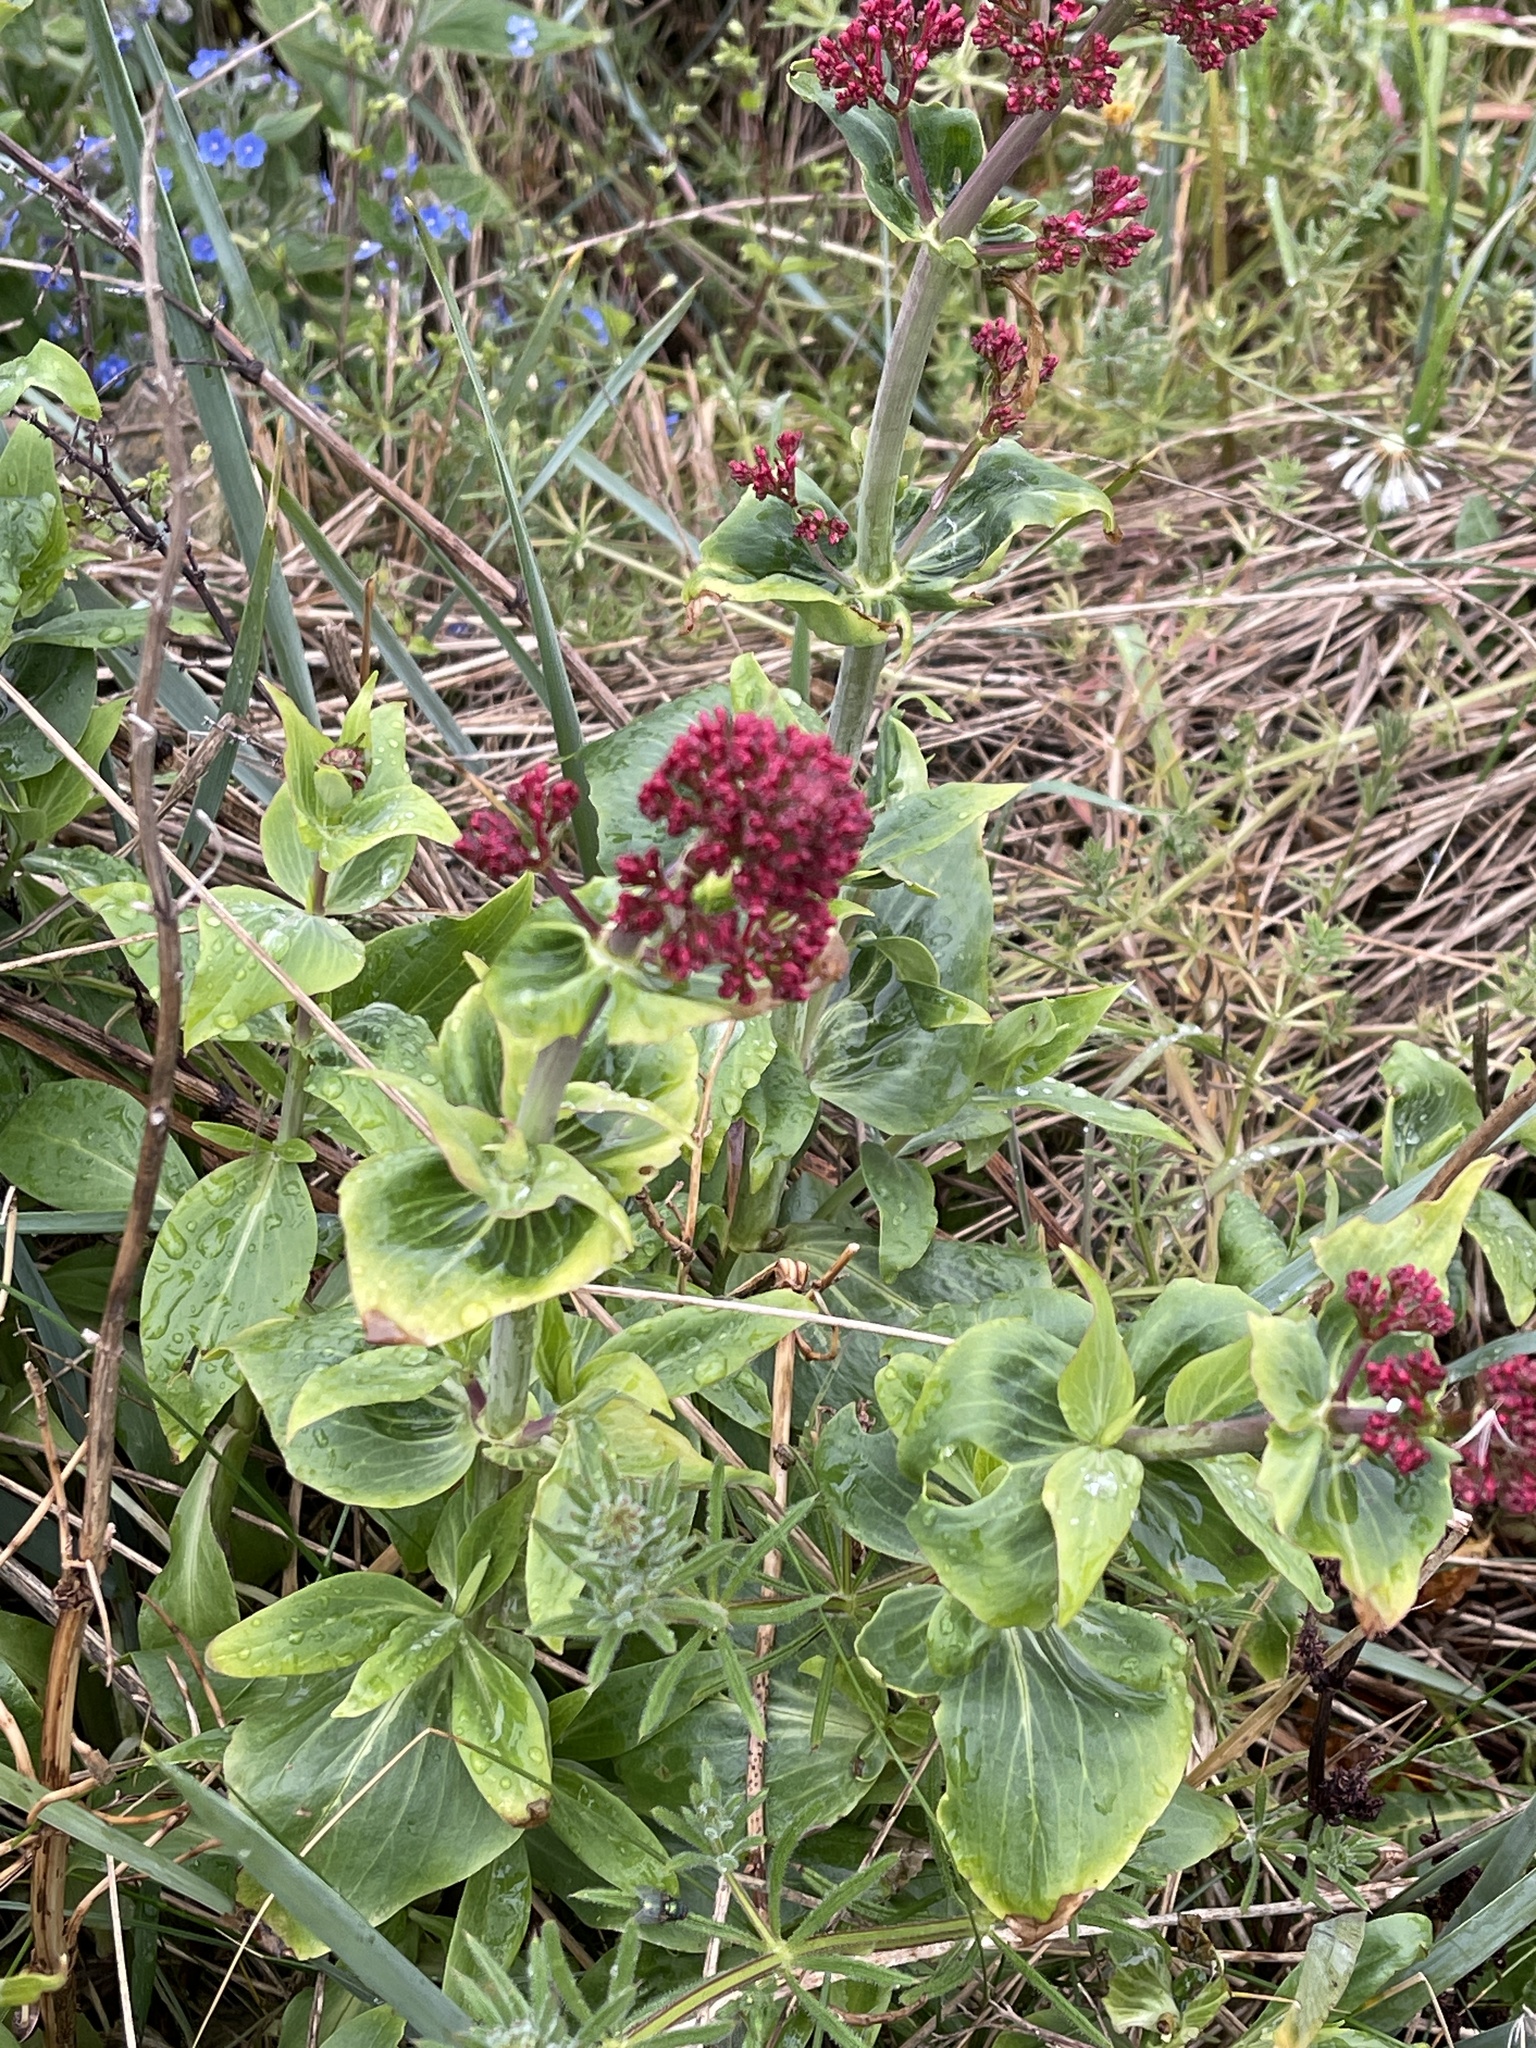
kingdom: Plantae
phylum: Tracheophyta
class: Magnoliopsida
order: Dipsacales
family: Caprifoliaceae
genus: Centranthus
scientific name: Centranthus ruber
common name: Red valerian
